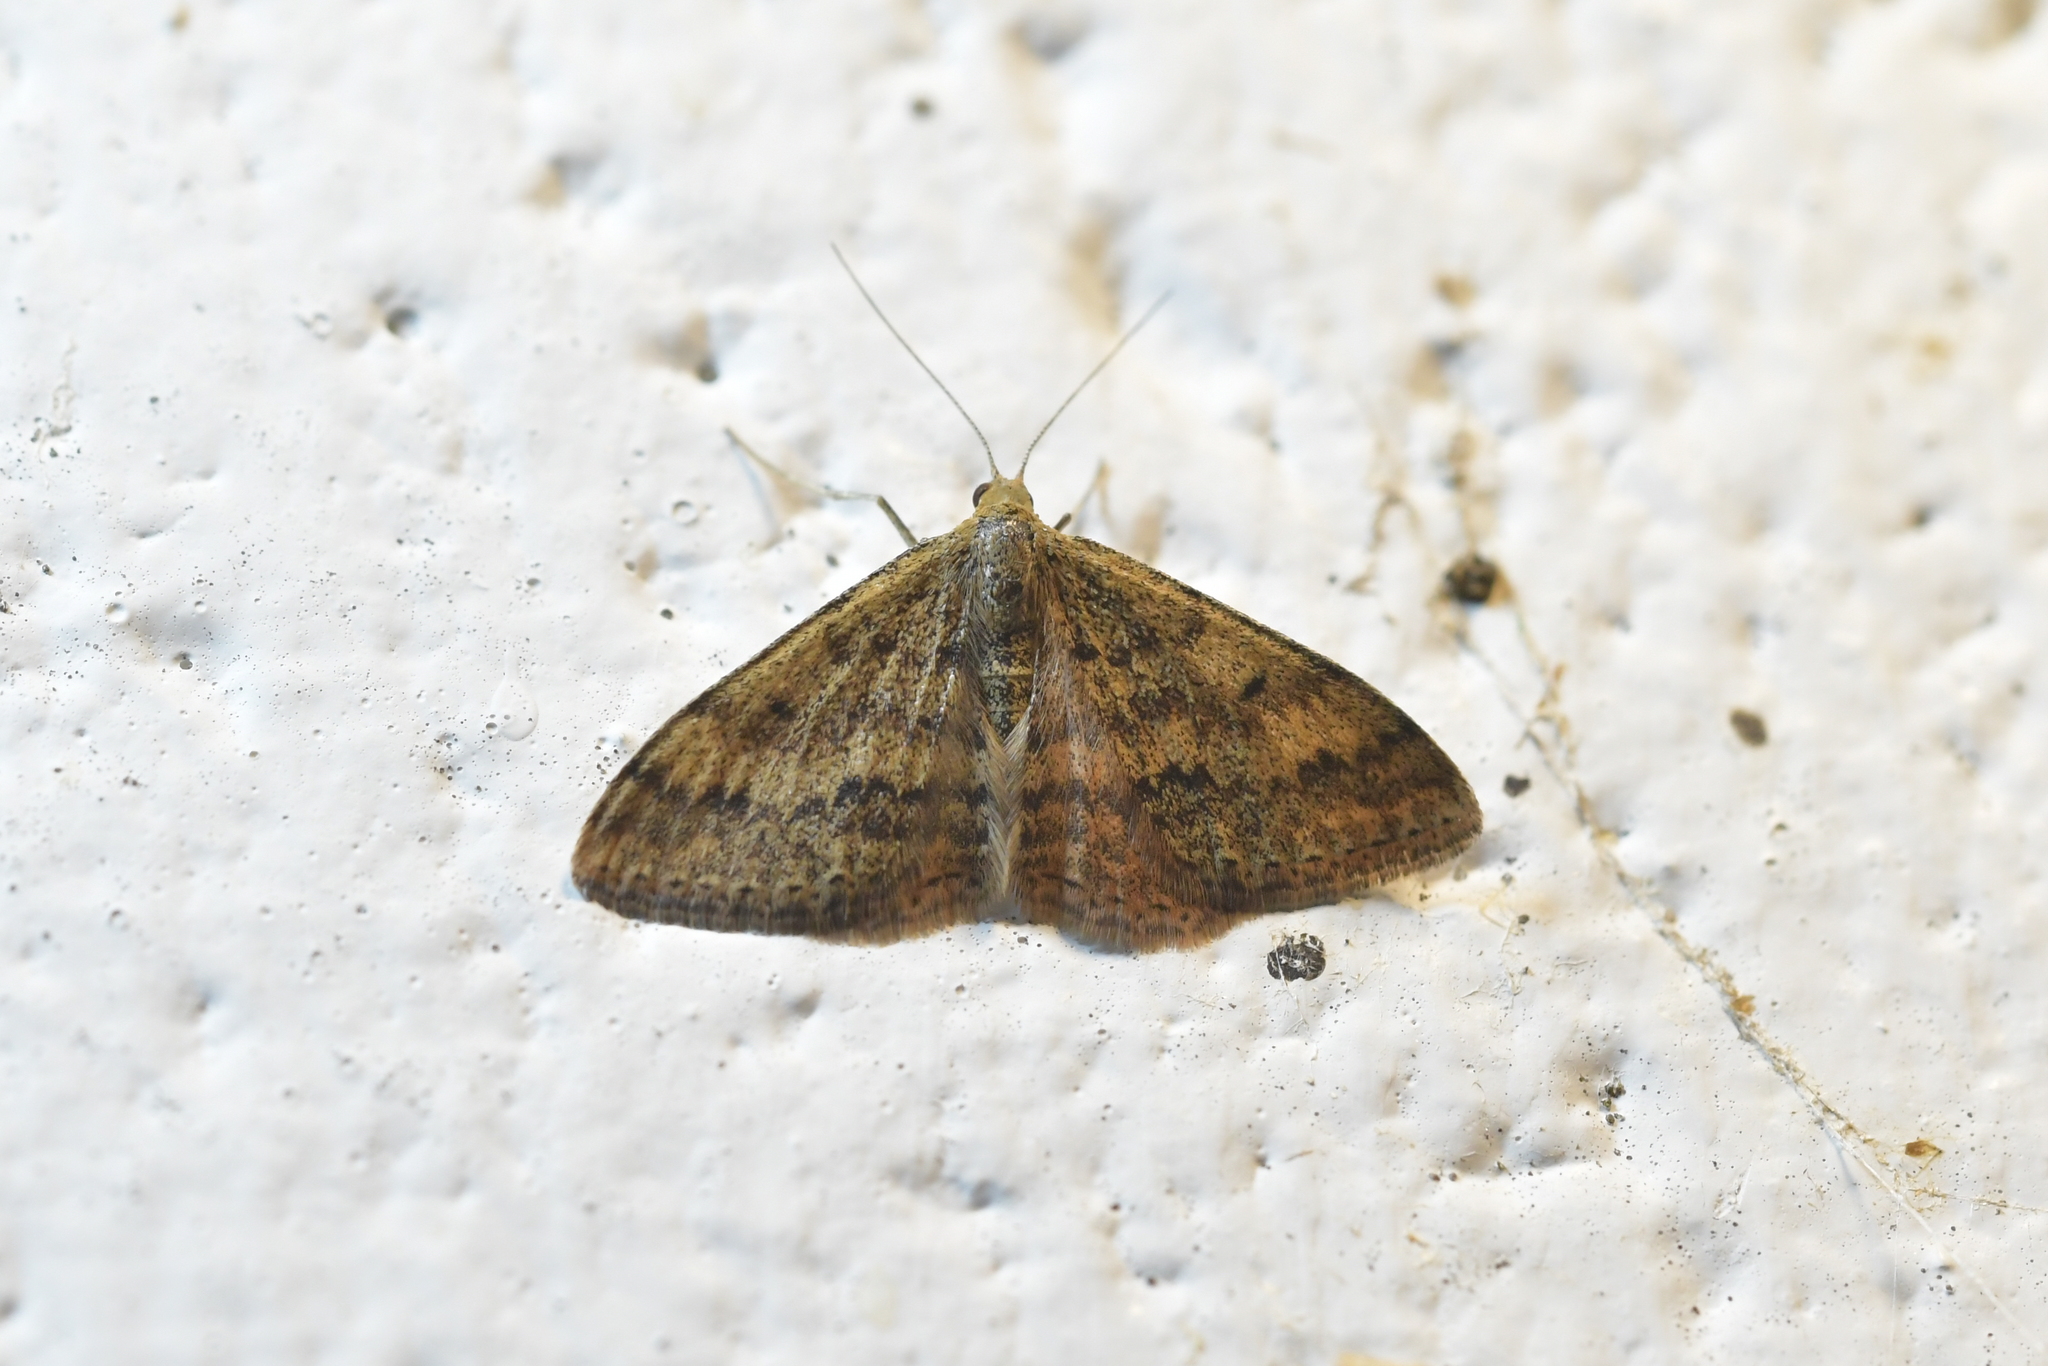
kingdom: Animalia
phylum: Arthropoda
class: Insecta
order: Lepidoptera
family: Geometridae
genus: Scopula
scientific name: Scopula rubraria
